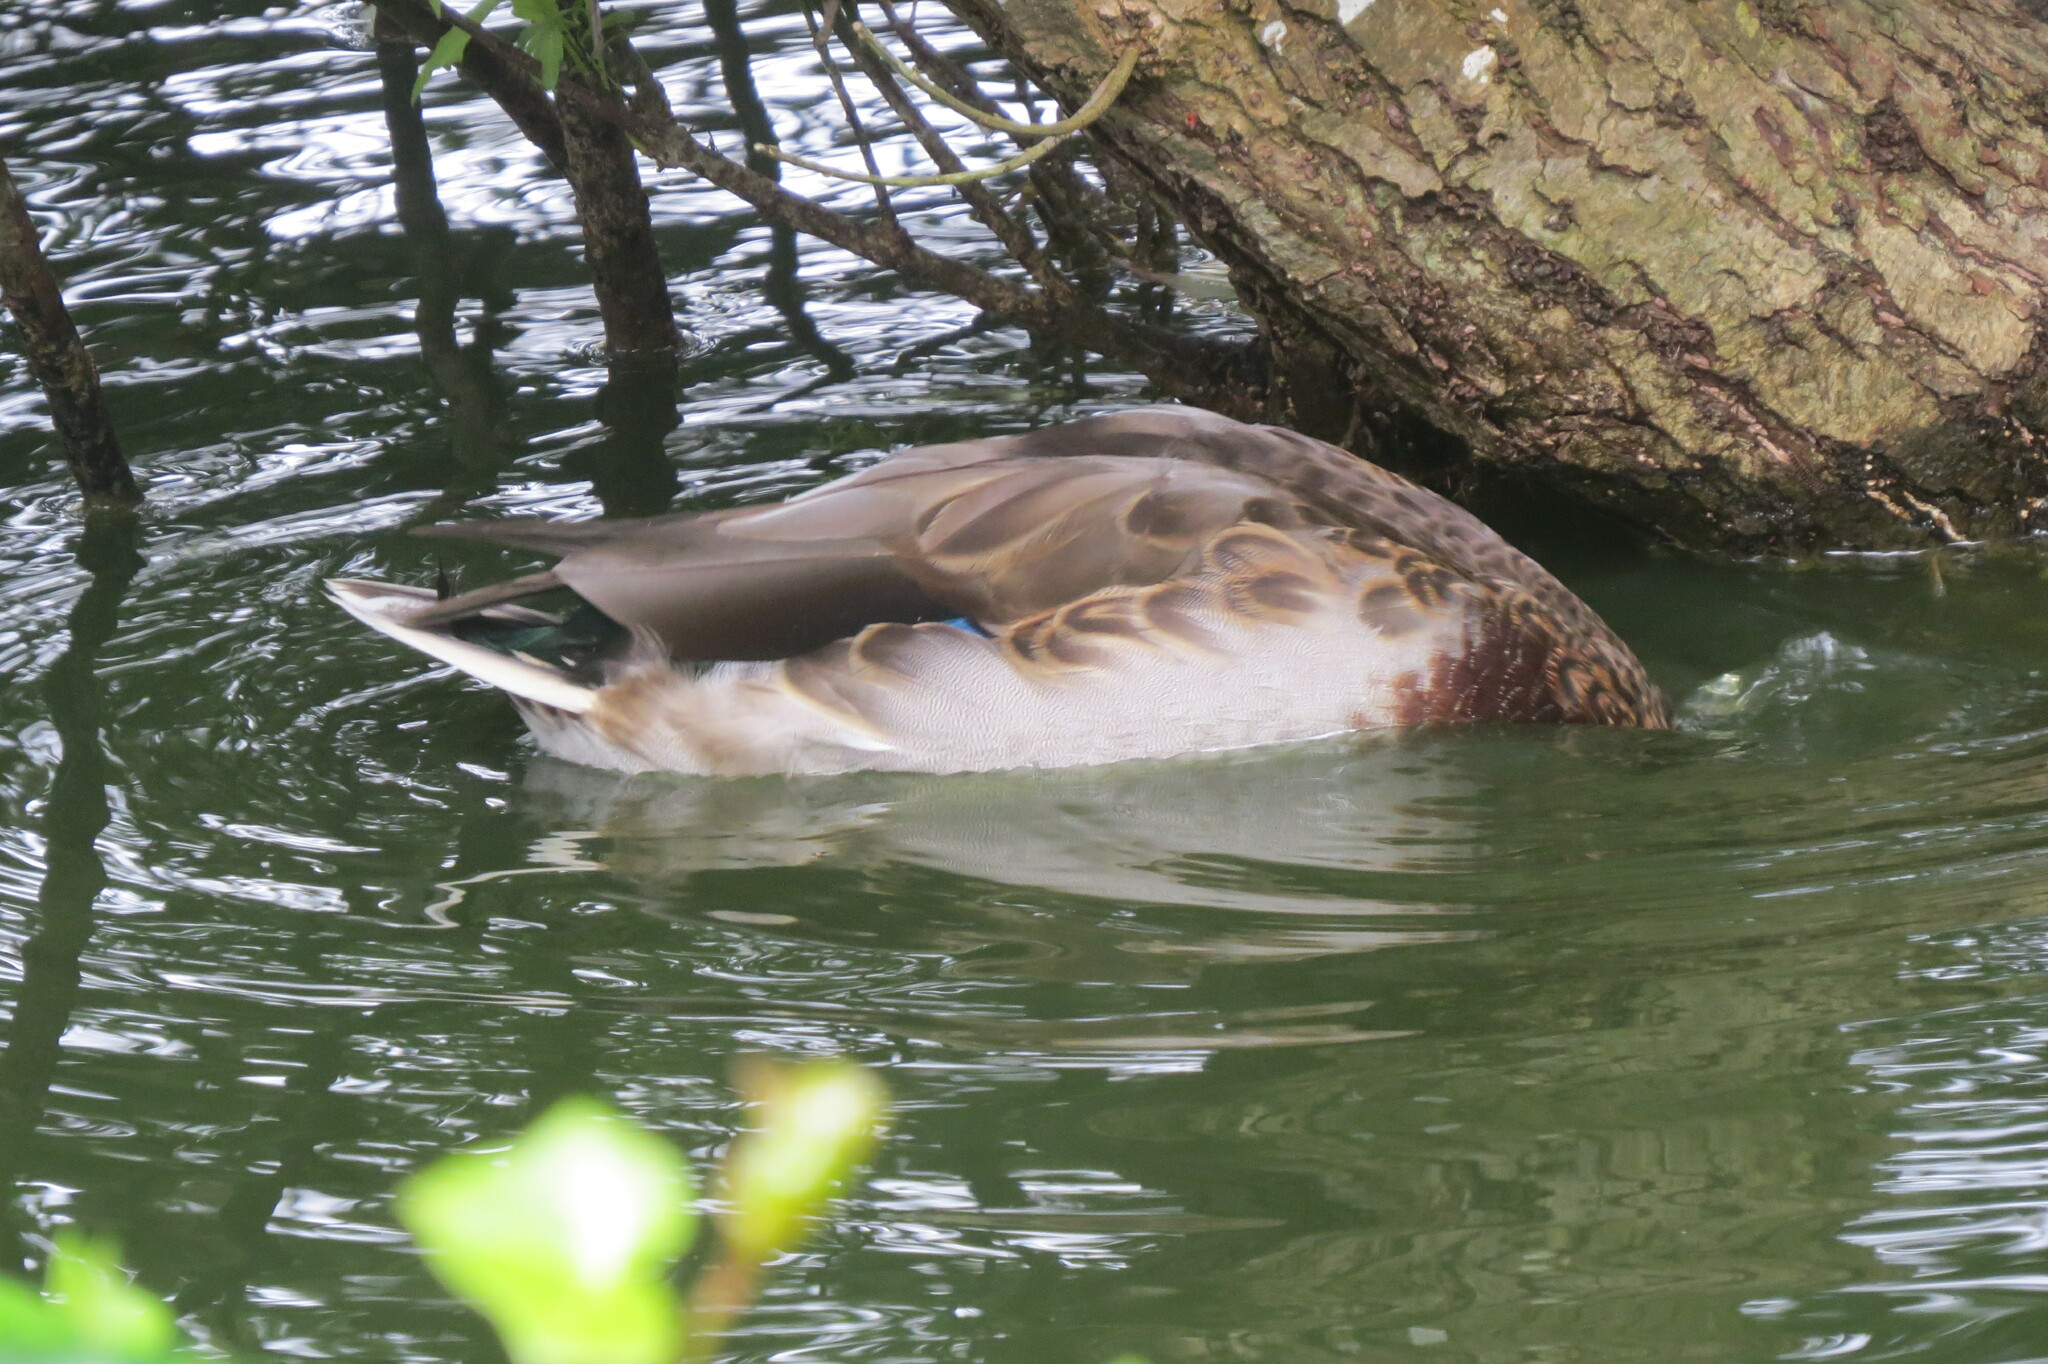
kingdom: Animalia
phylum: Chordata
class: Aves
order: Anseriformes
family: Anatidae
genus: Anas
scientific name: Anas platyrhynchos
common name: Mallard
